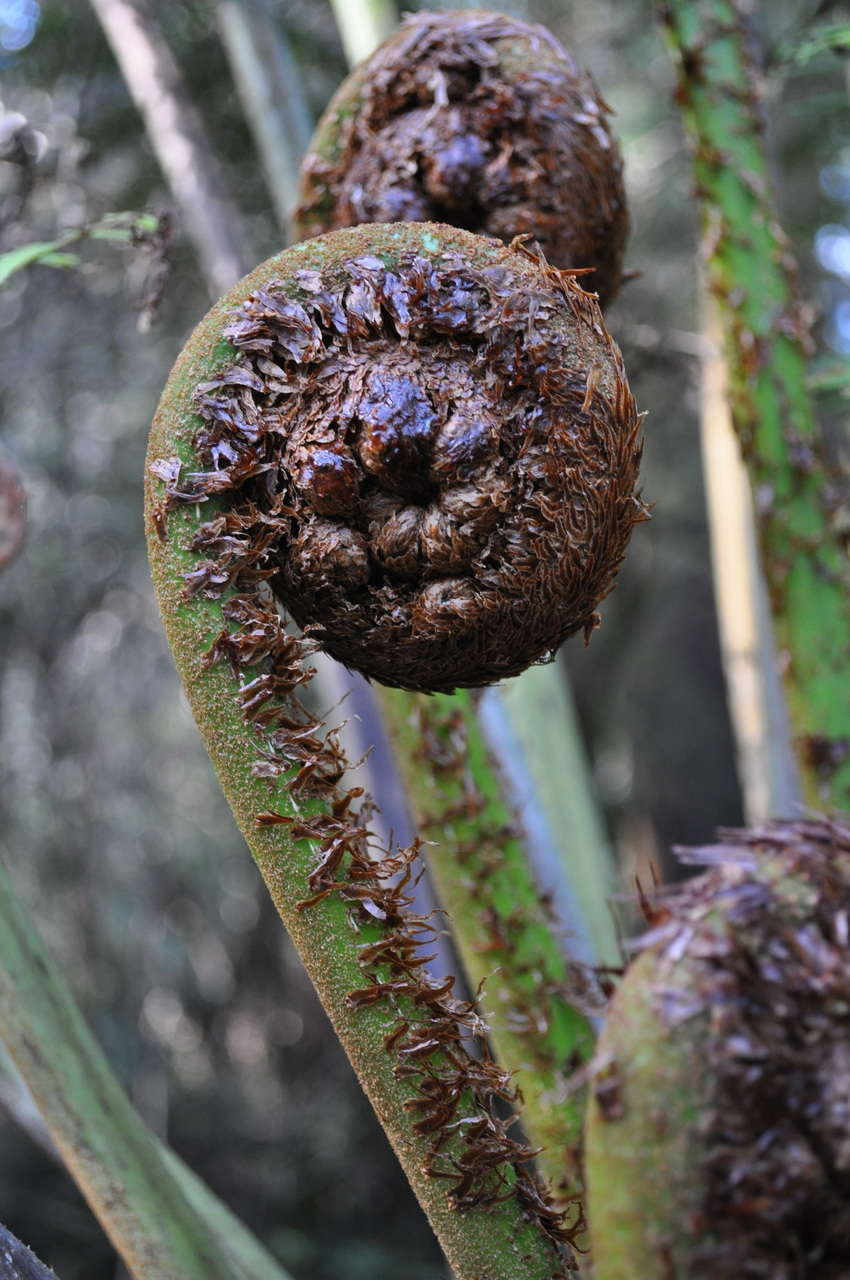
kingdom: Plantae
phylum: Tracheophyta
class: Polypodiopsida
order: Cyatheales
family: Dicksoniaceae
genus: Dicksonia
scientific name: Dicksonia antarctica
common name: Australian treefern
